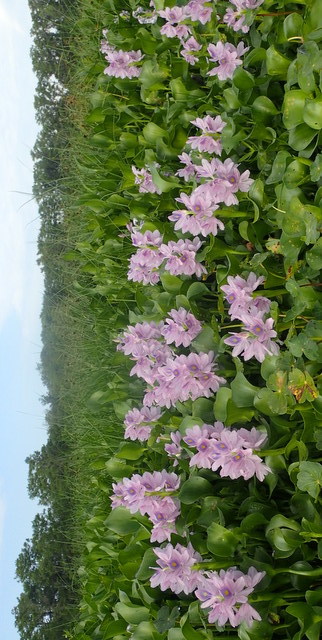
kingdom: Plantae
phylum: Tracheophyta
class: Liliopsida
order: Commelinales
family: Pontederiaceae
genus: Pontederia
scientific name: Pontederia crassipes
